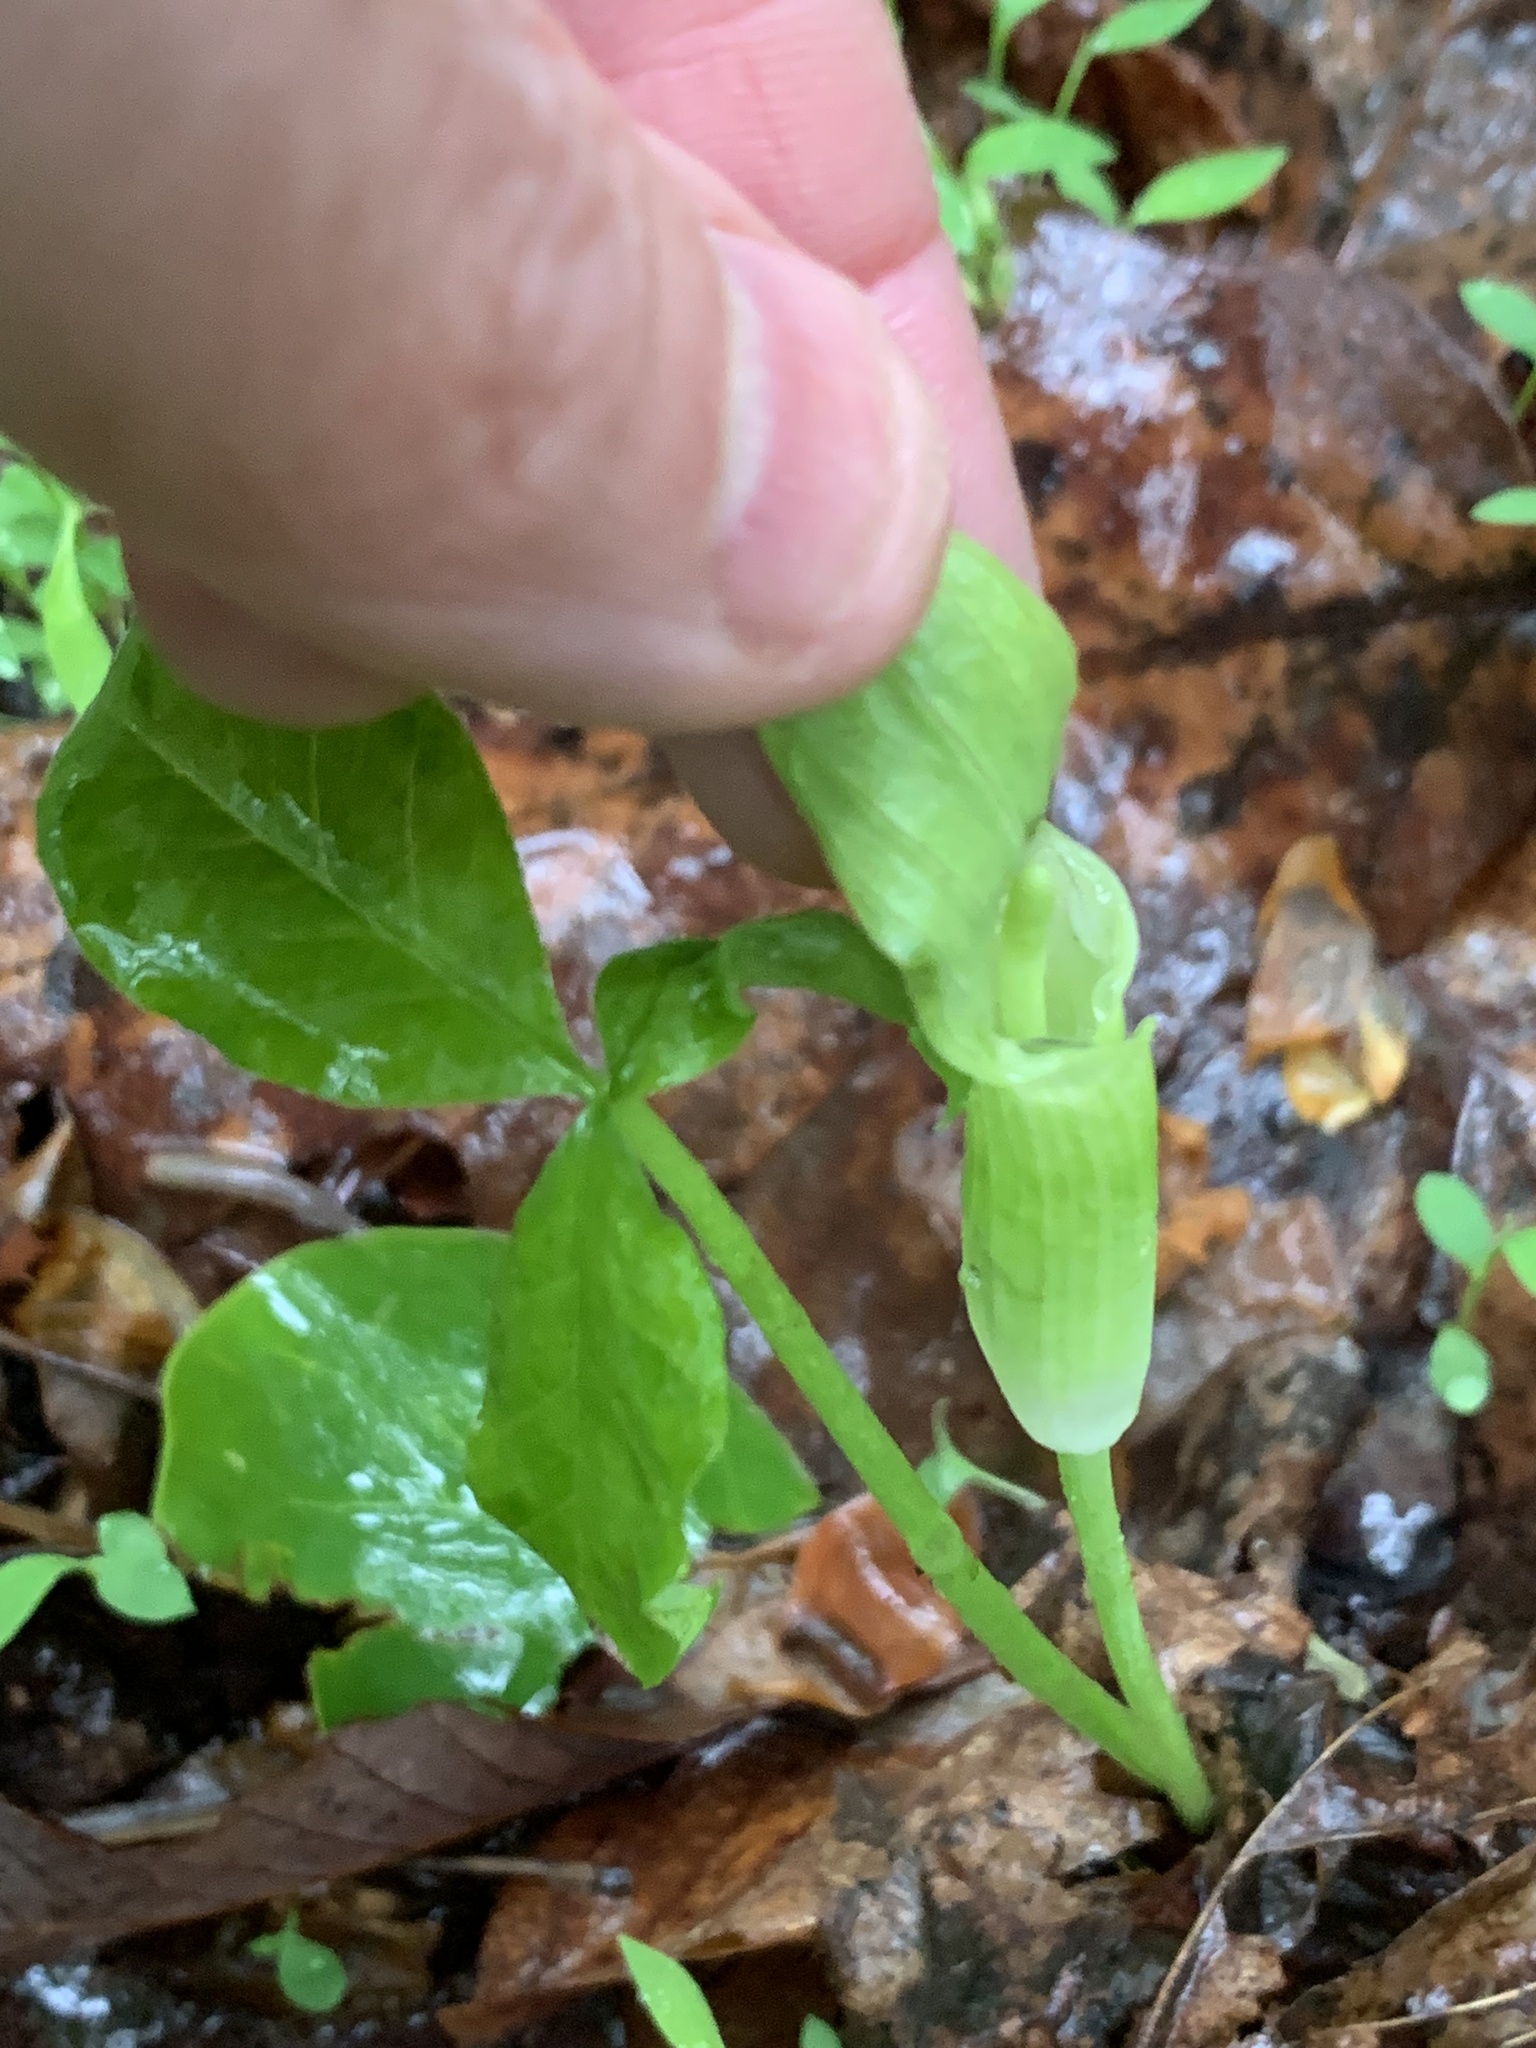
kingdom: Plantae
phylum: Tracheophyta
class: Liliopsida
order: Alismatales
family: Araceae
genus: Arisaema
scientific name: Arisaema pusillum
